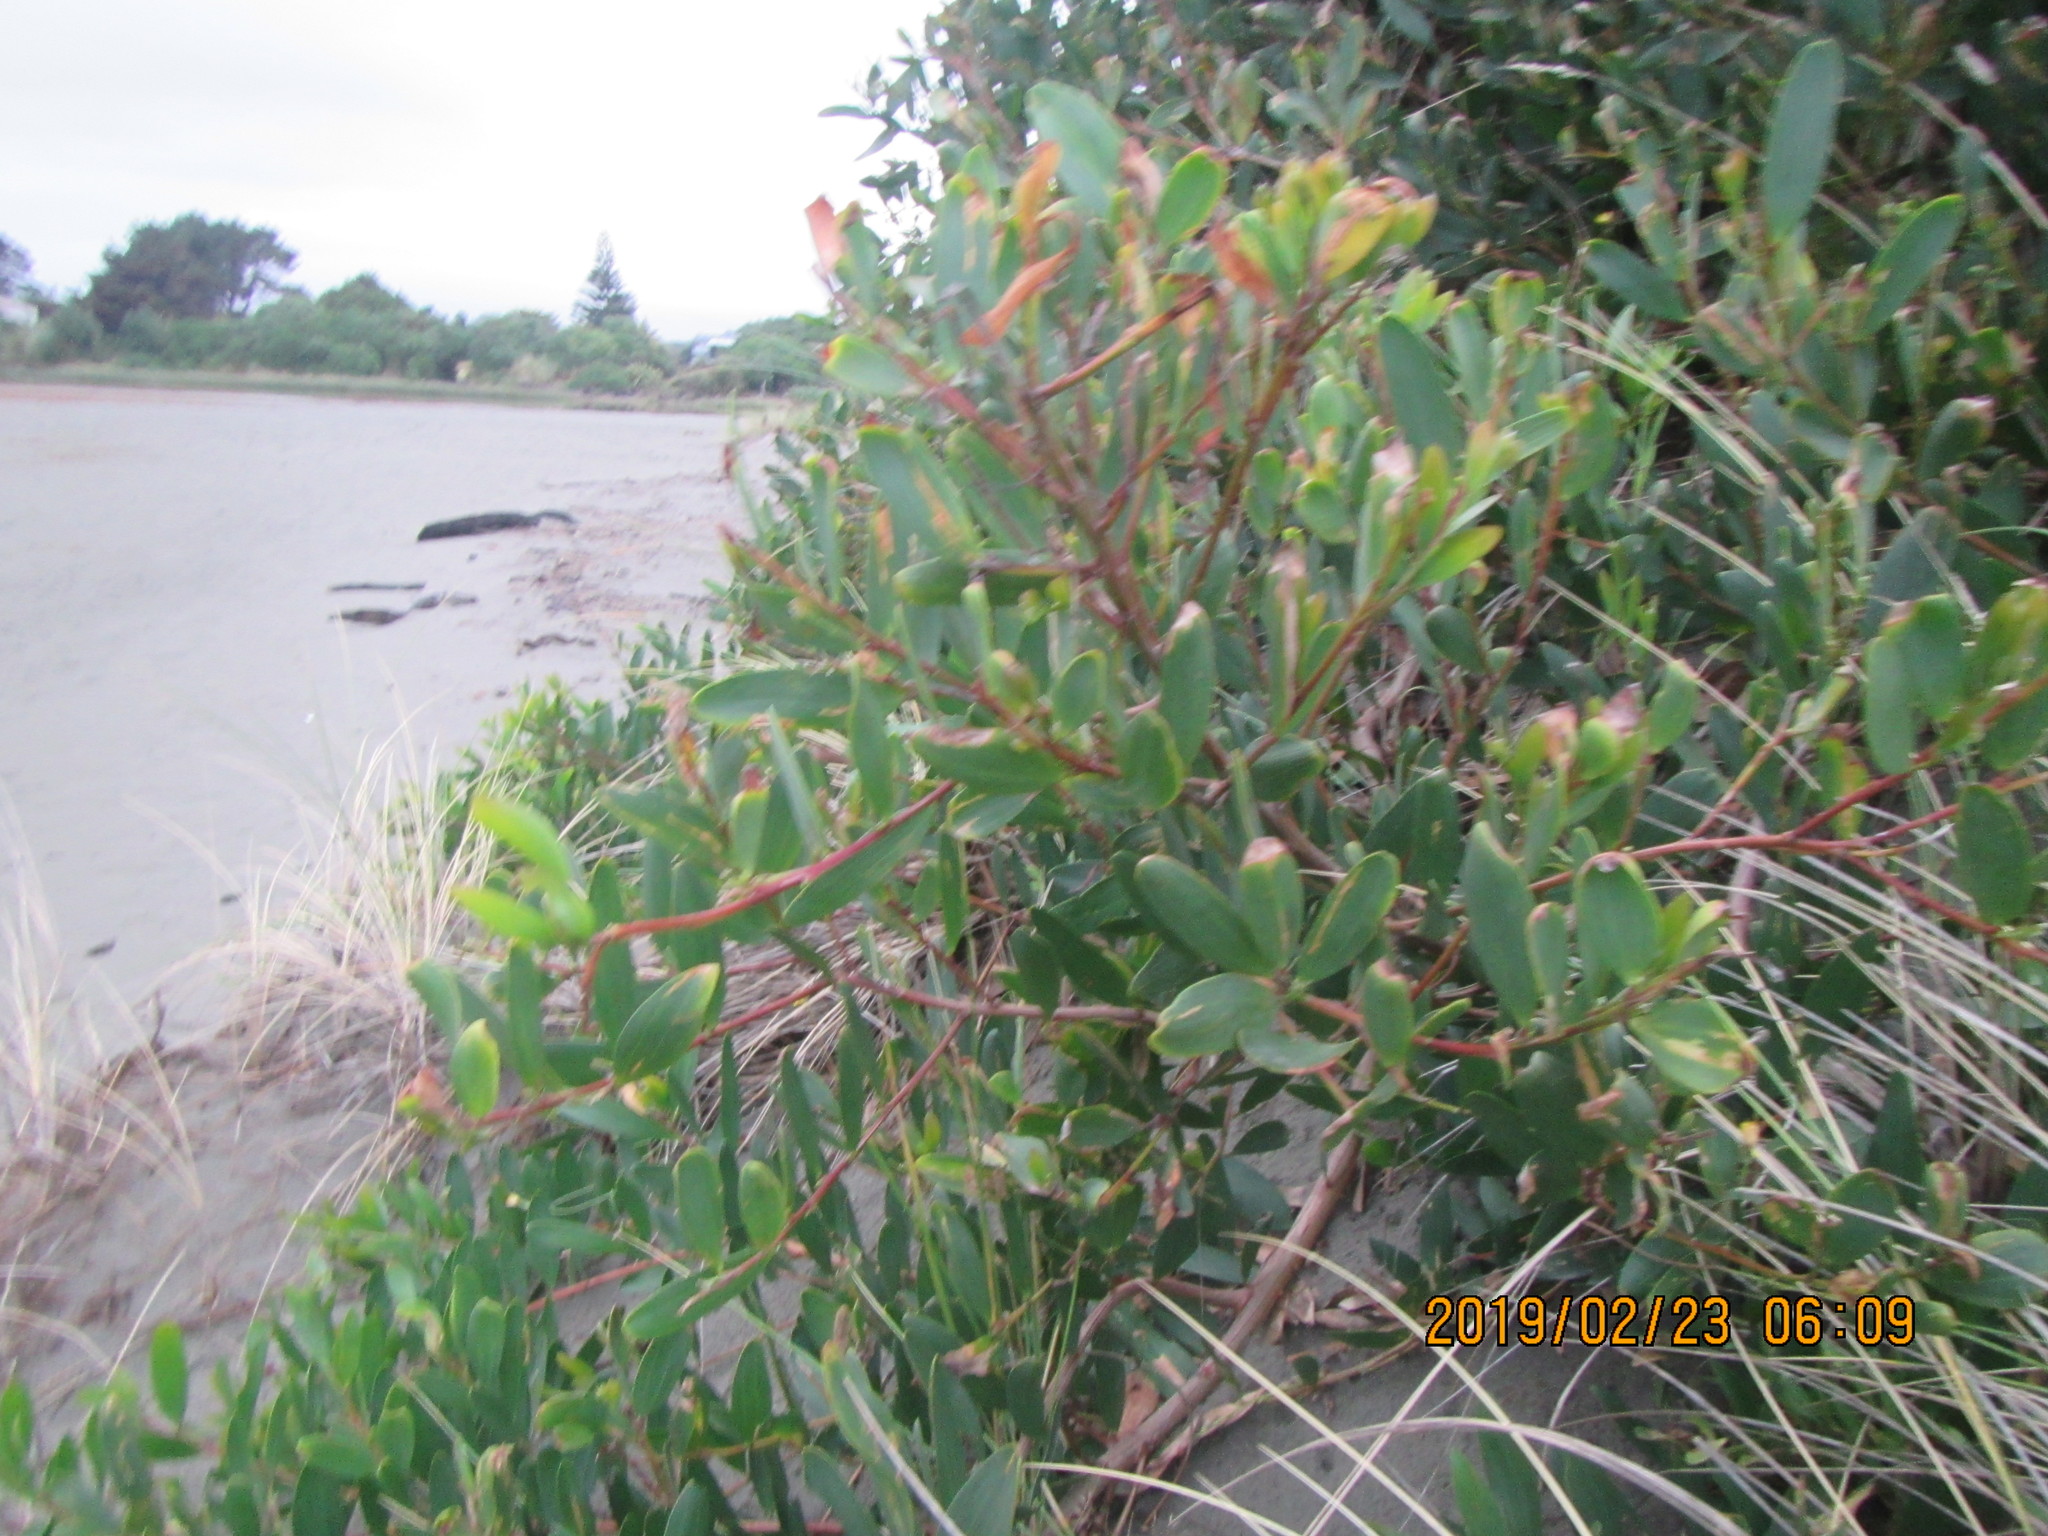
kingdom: Plantae
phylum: Tracheophyta
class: Magnoliopsida
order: Fabales
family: Fabaceae
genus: Acacia
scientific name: Acacia longifolia
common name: Sydney golden wattle
